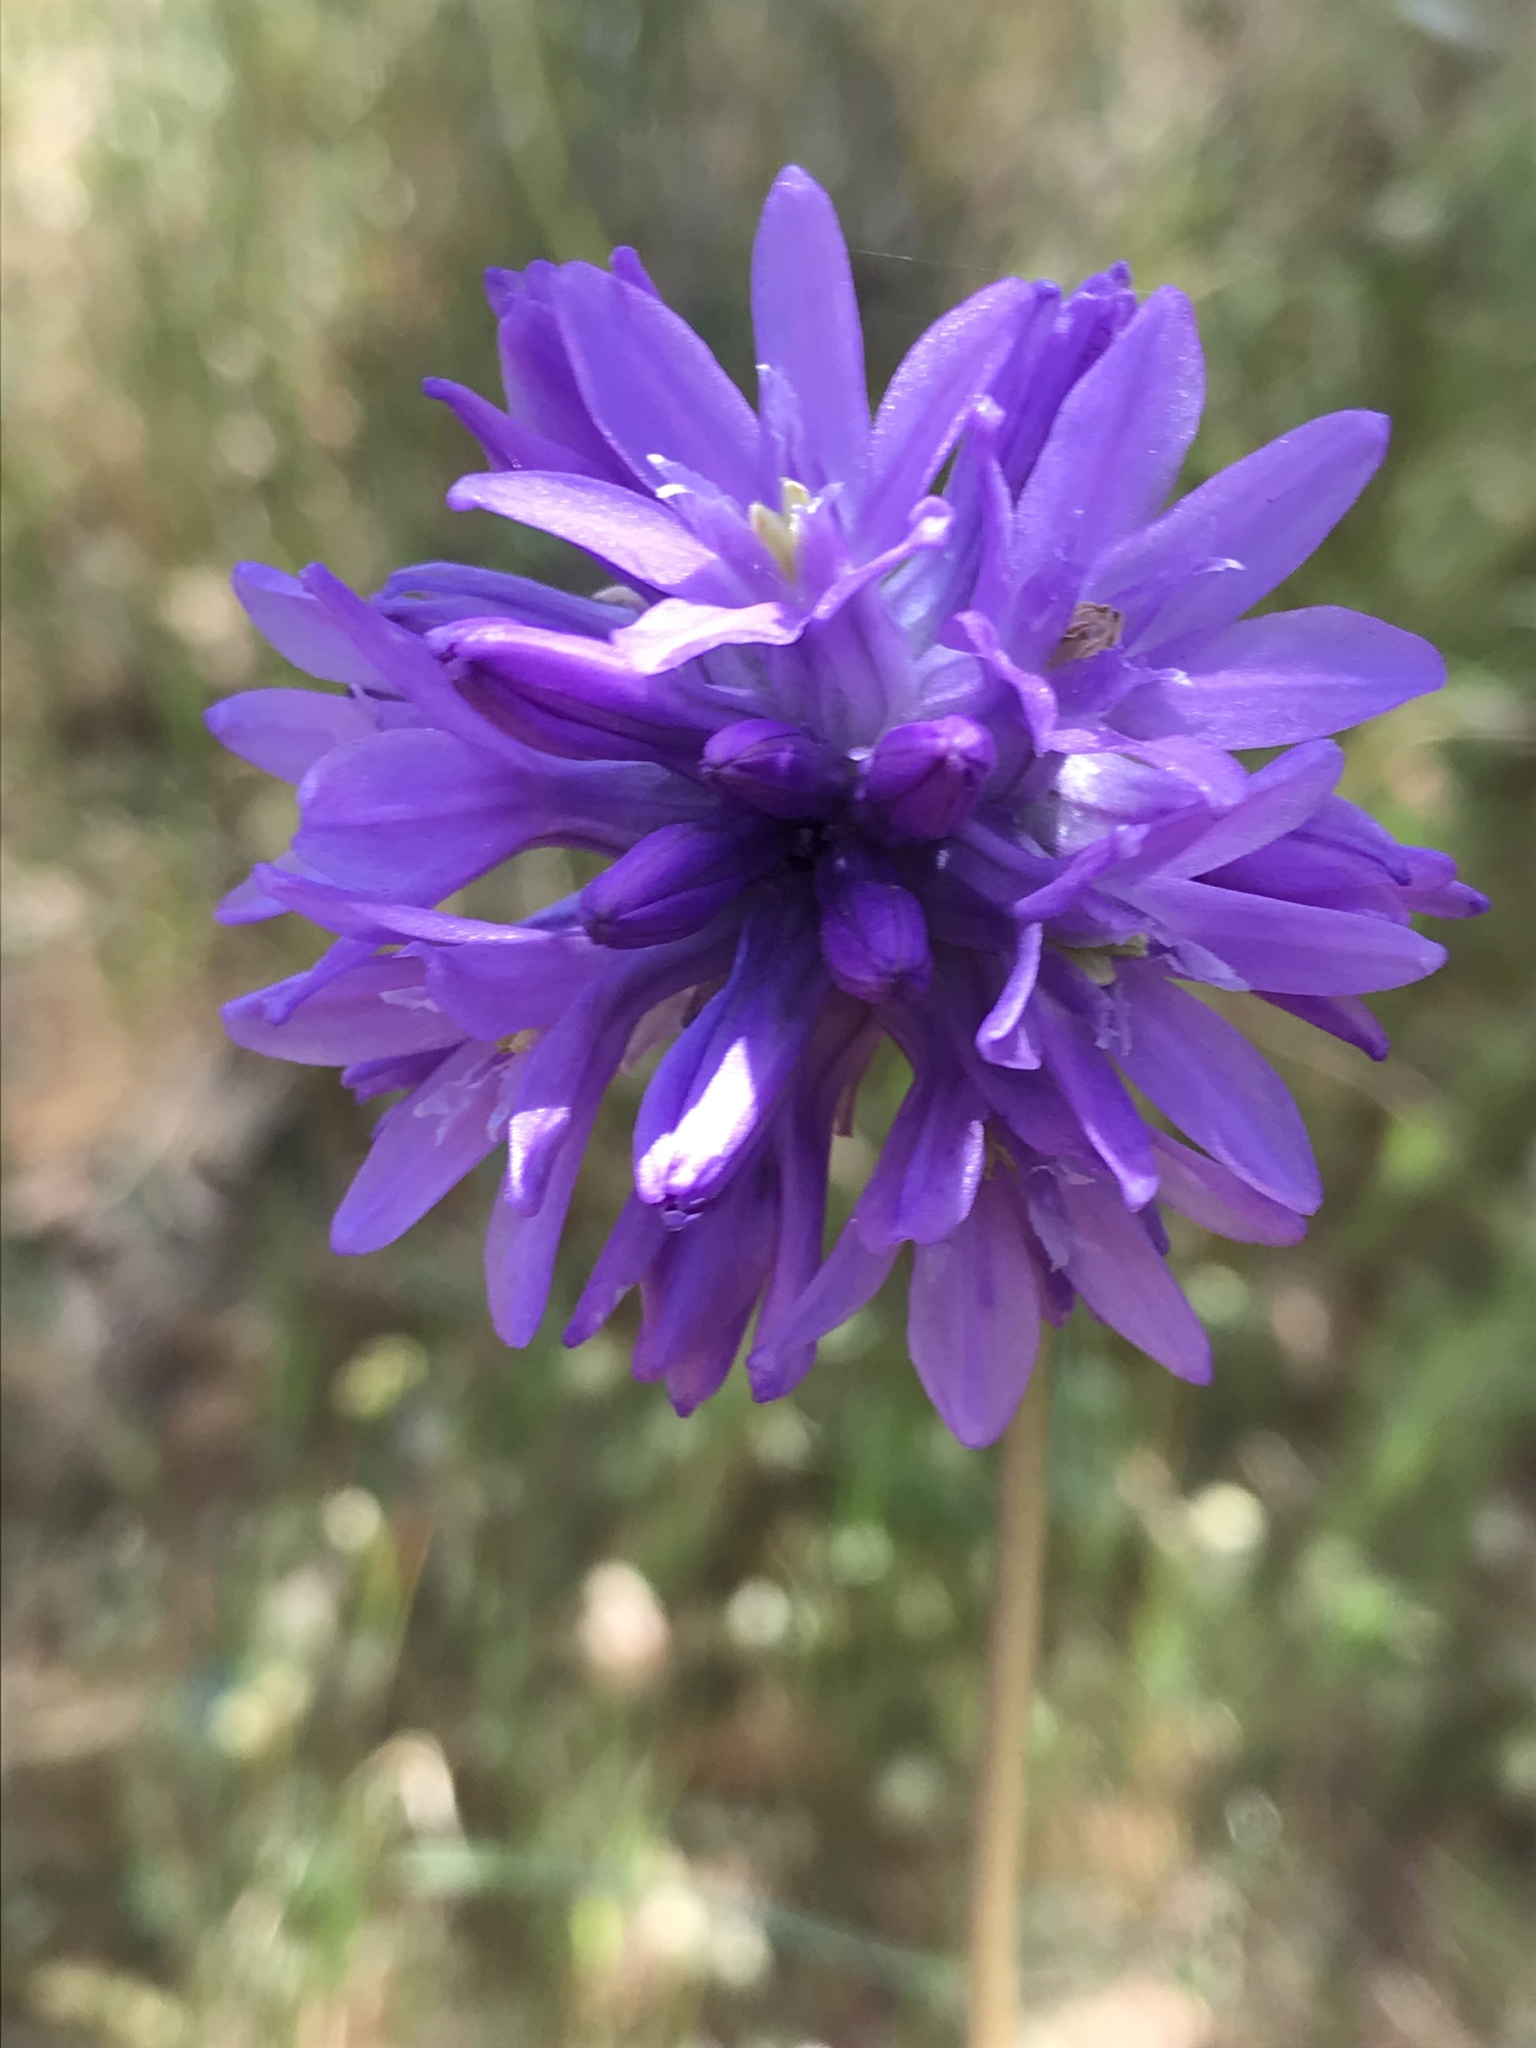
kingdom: Plantae
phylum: Tracheophyta
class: Liliopsida
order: Asparagales
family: Asparagaceae
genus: Dichelostemma
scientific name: Dichelostemma congestum
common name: Fork-tooth ookow
